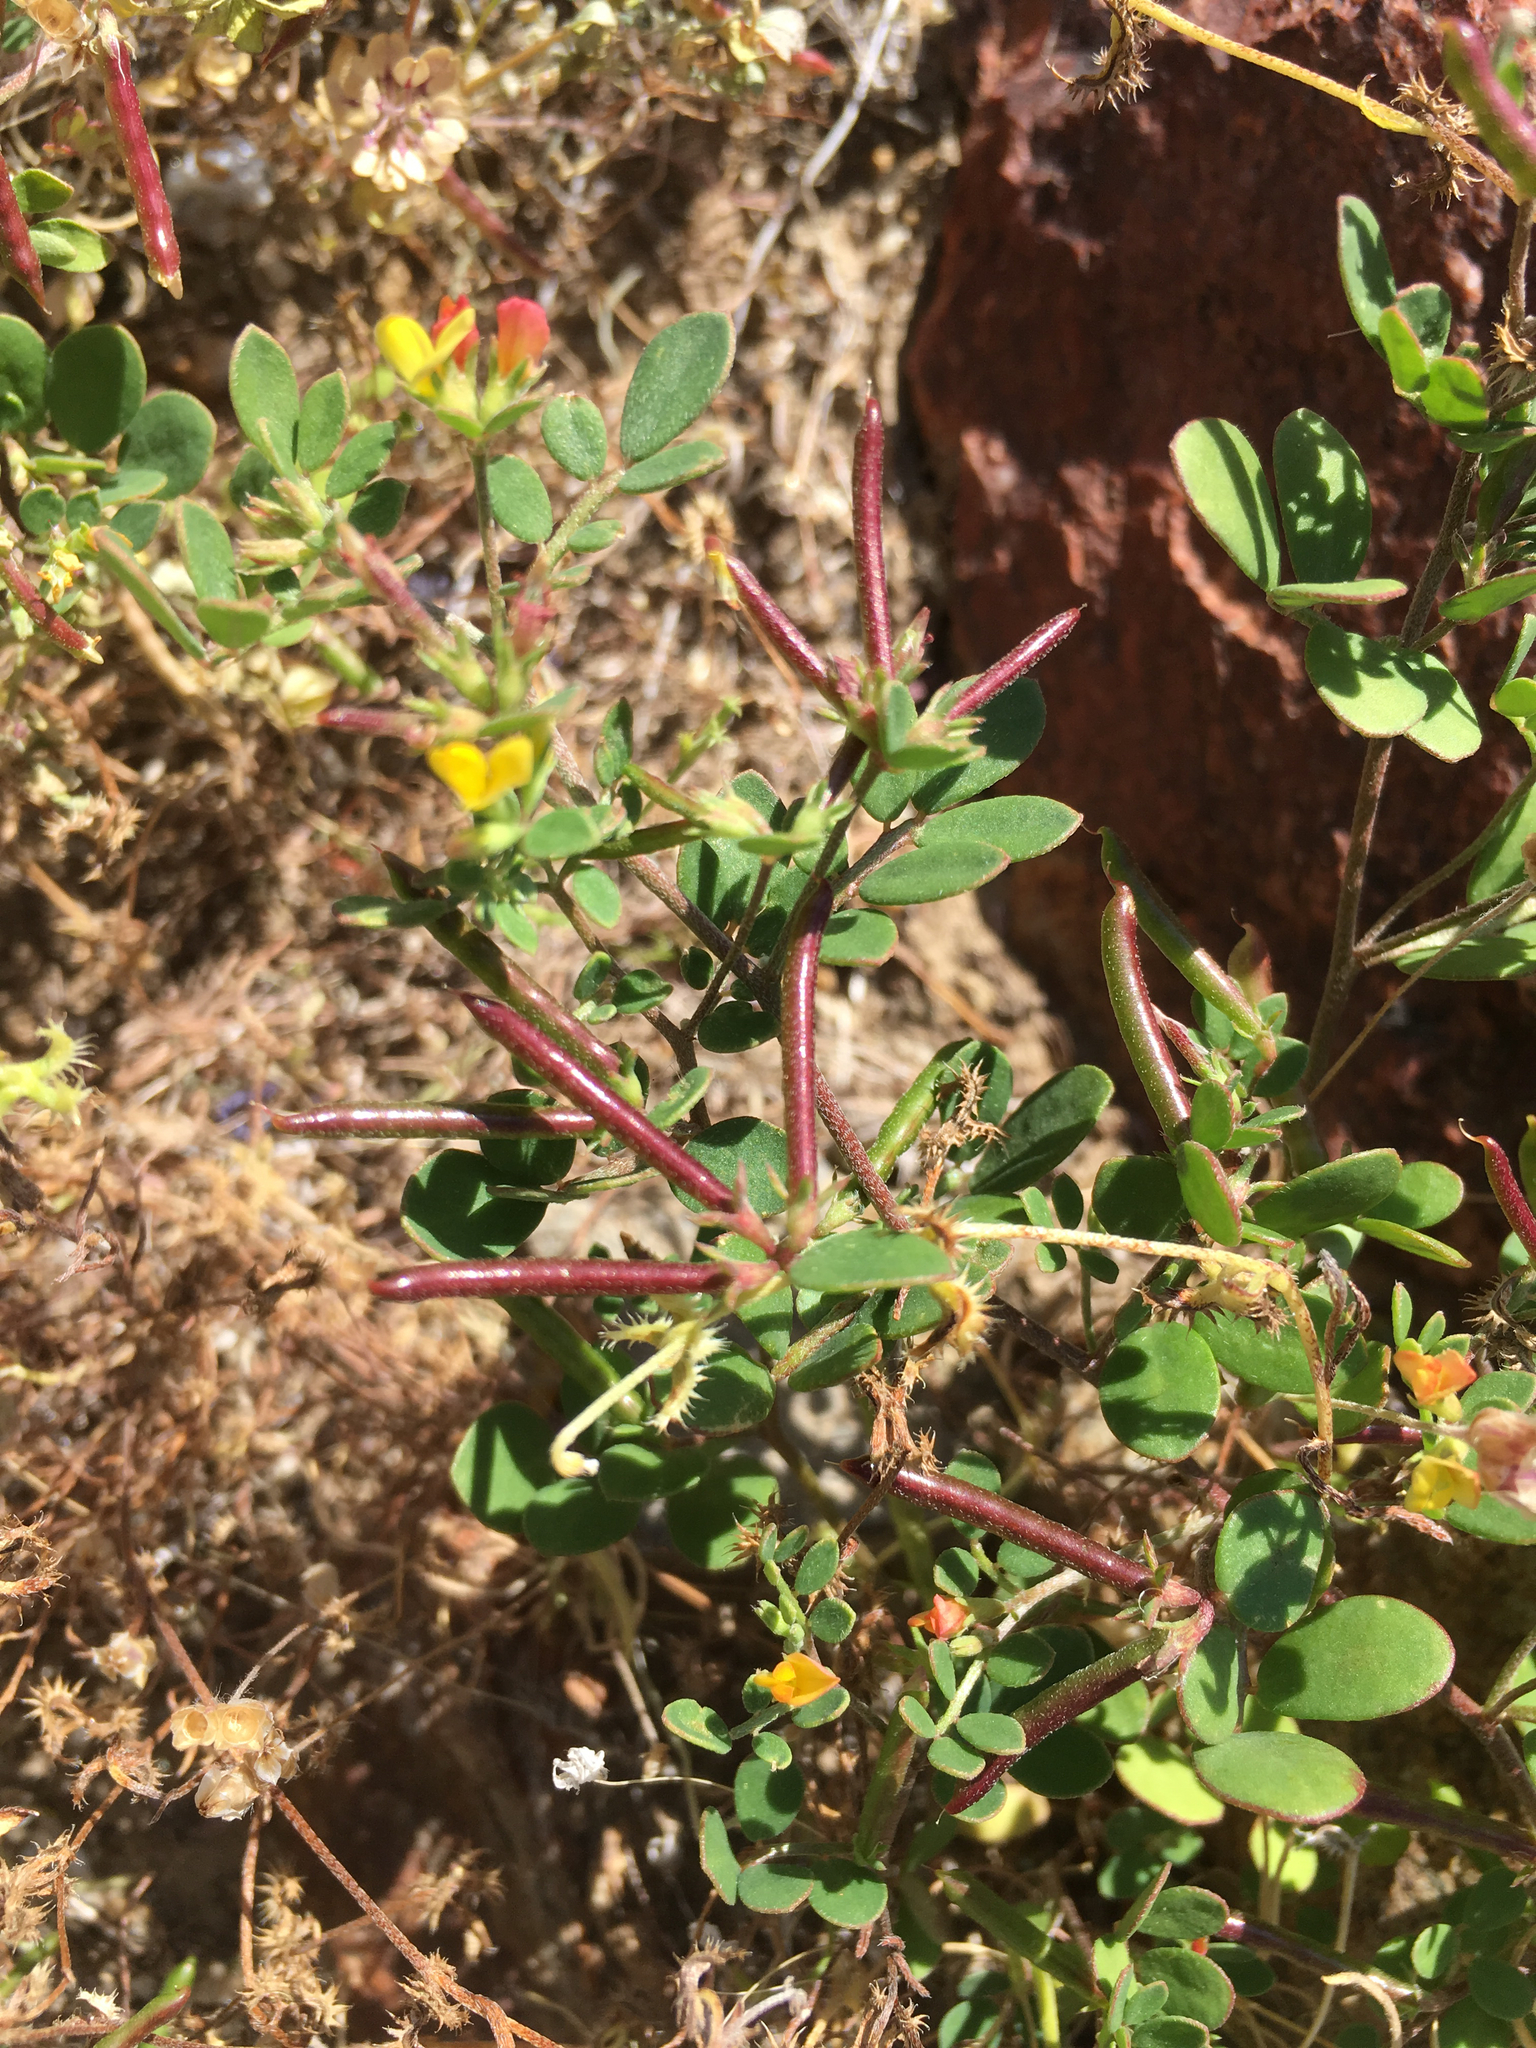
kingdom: Plantae
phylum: Tracheophyta
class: Magnoliopsida
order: Fabales
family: Fabaceae
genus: Acmispon
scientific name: Acmispon maritimus
